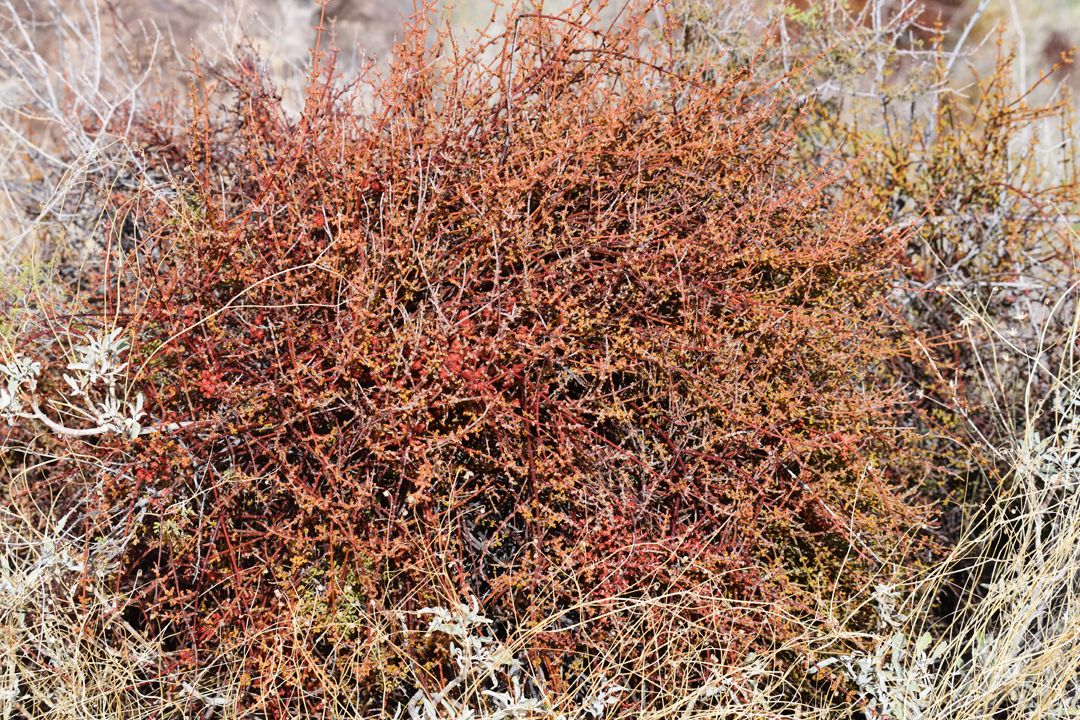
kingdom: Plantae
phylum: Tracheophyta
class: Magnoliopsida
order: Santalales
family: Viscaceae
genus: Phoradendron
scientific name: Phoradendron californicum
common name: Acacia mistletoe
